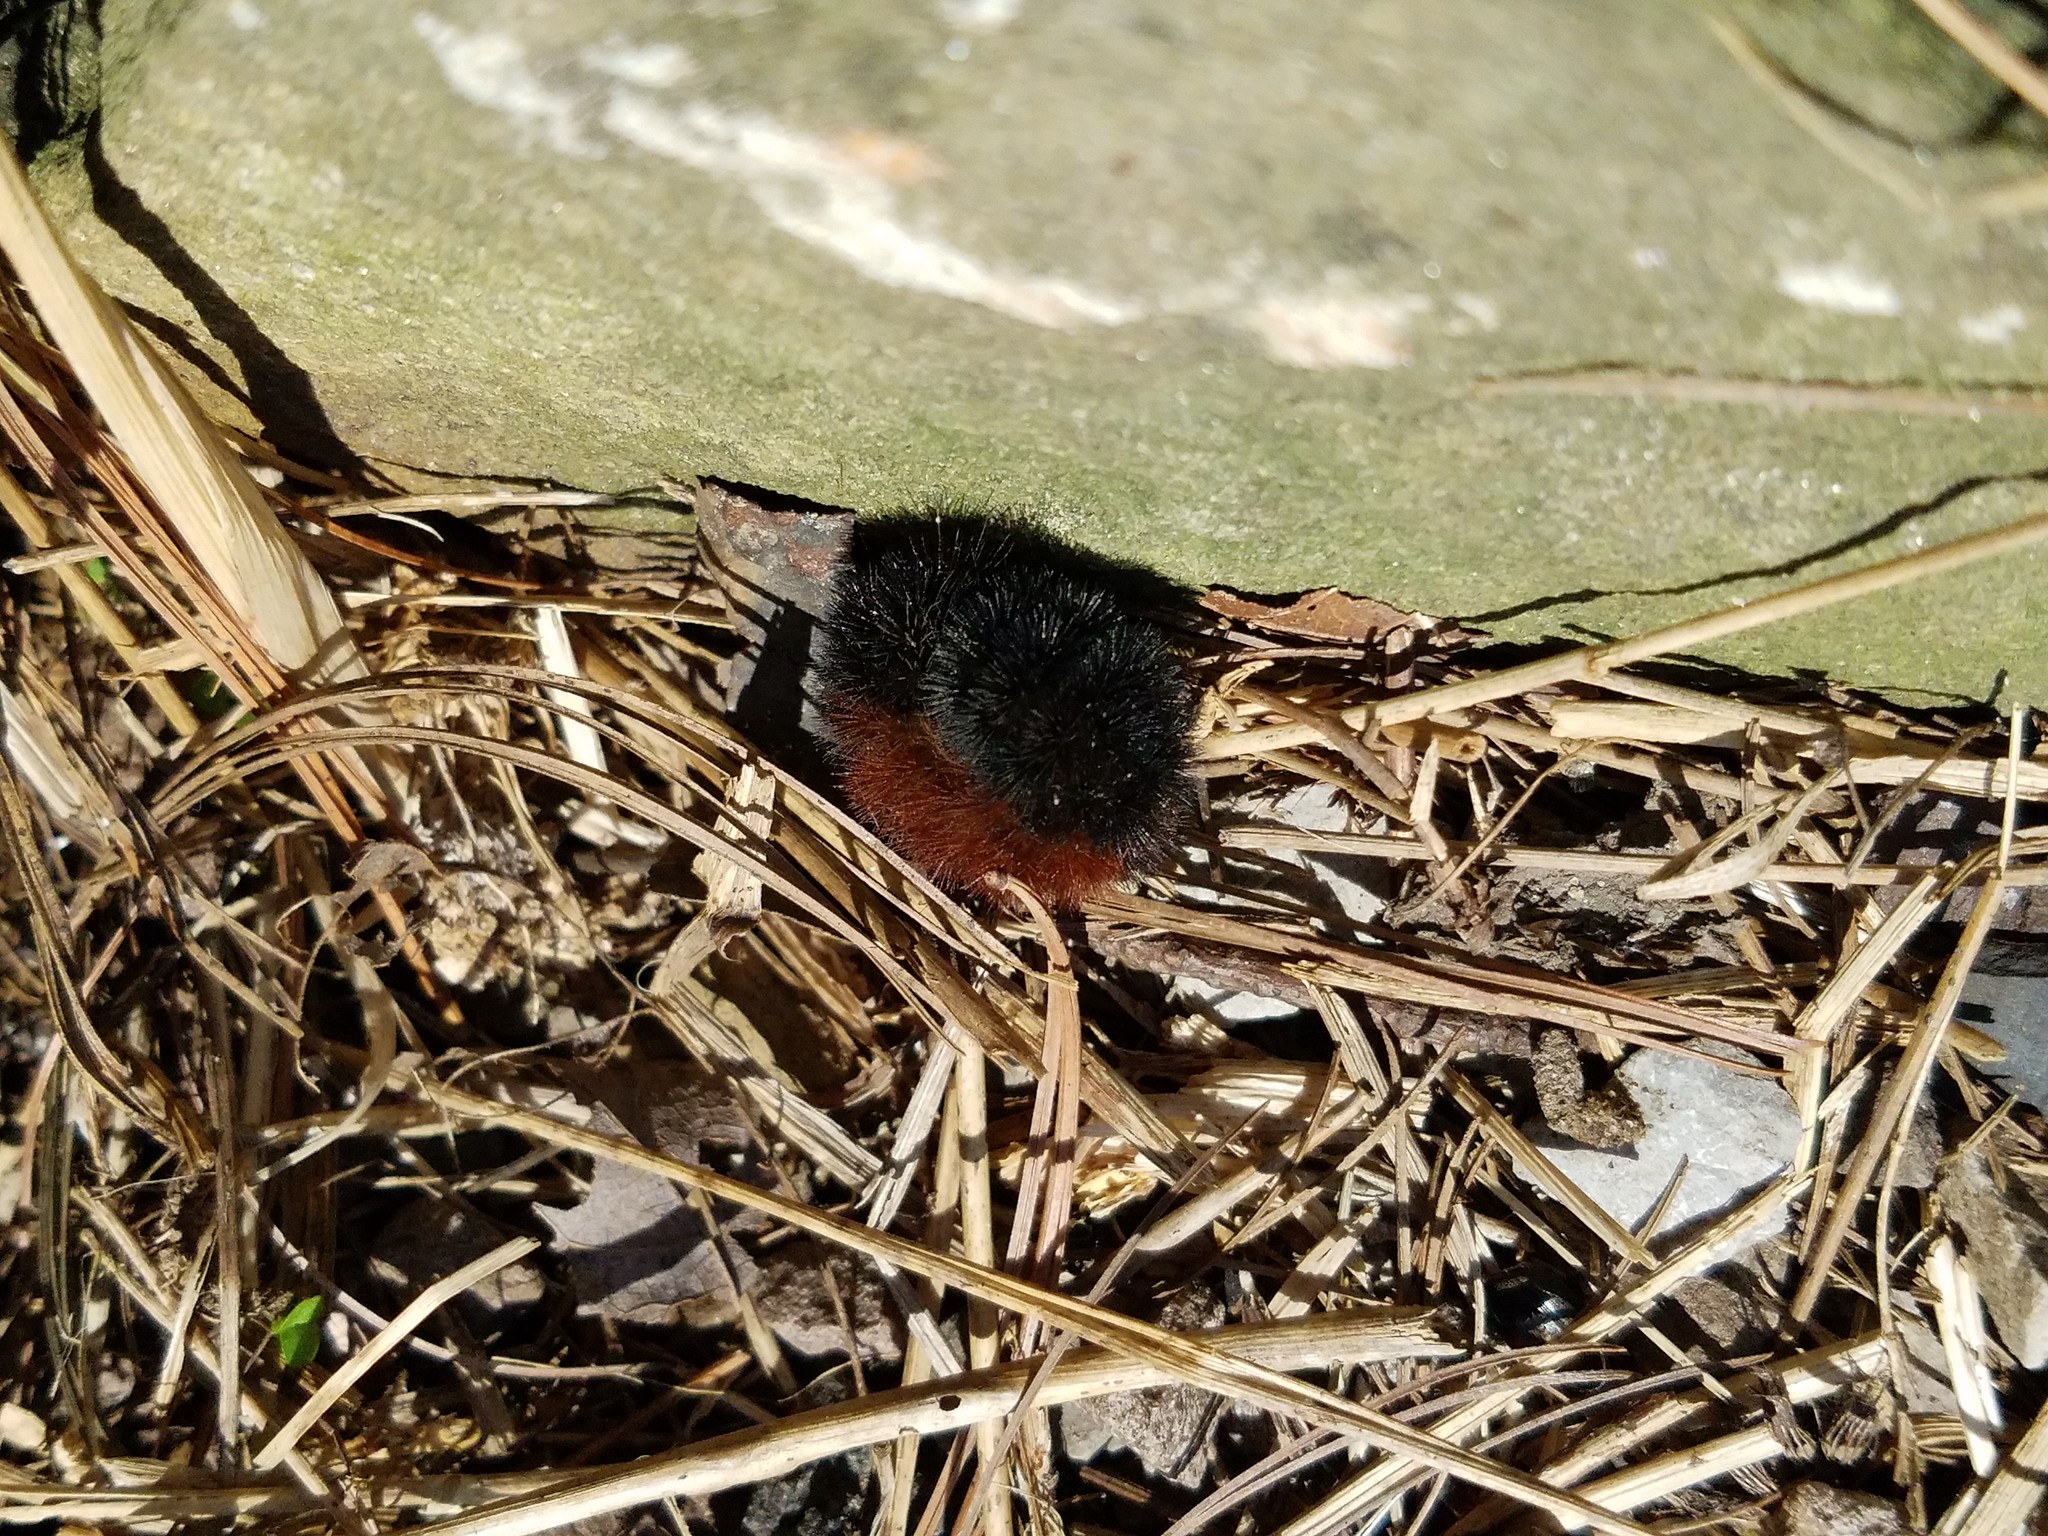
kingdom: Animalia
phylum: Arthropoda
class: Insecta
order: Lepidoptera
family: Erebidae
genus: Pyrrharctia
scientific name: Pyrrharctia isabella
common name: Isabella tiger moth
